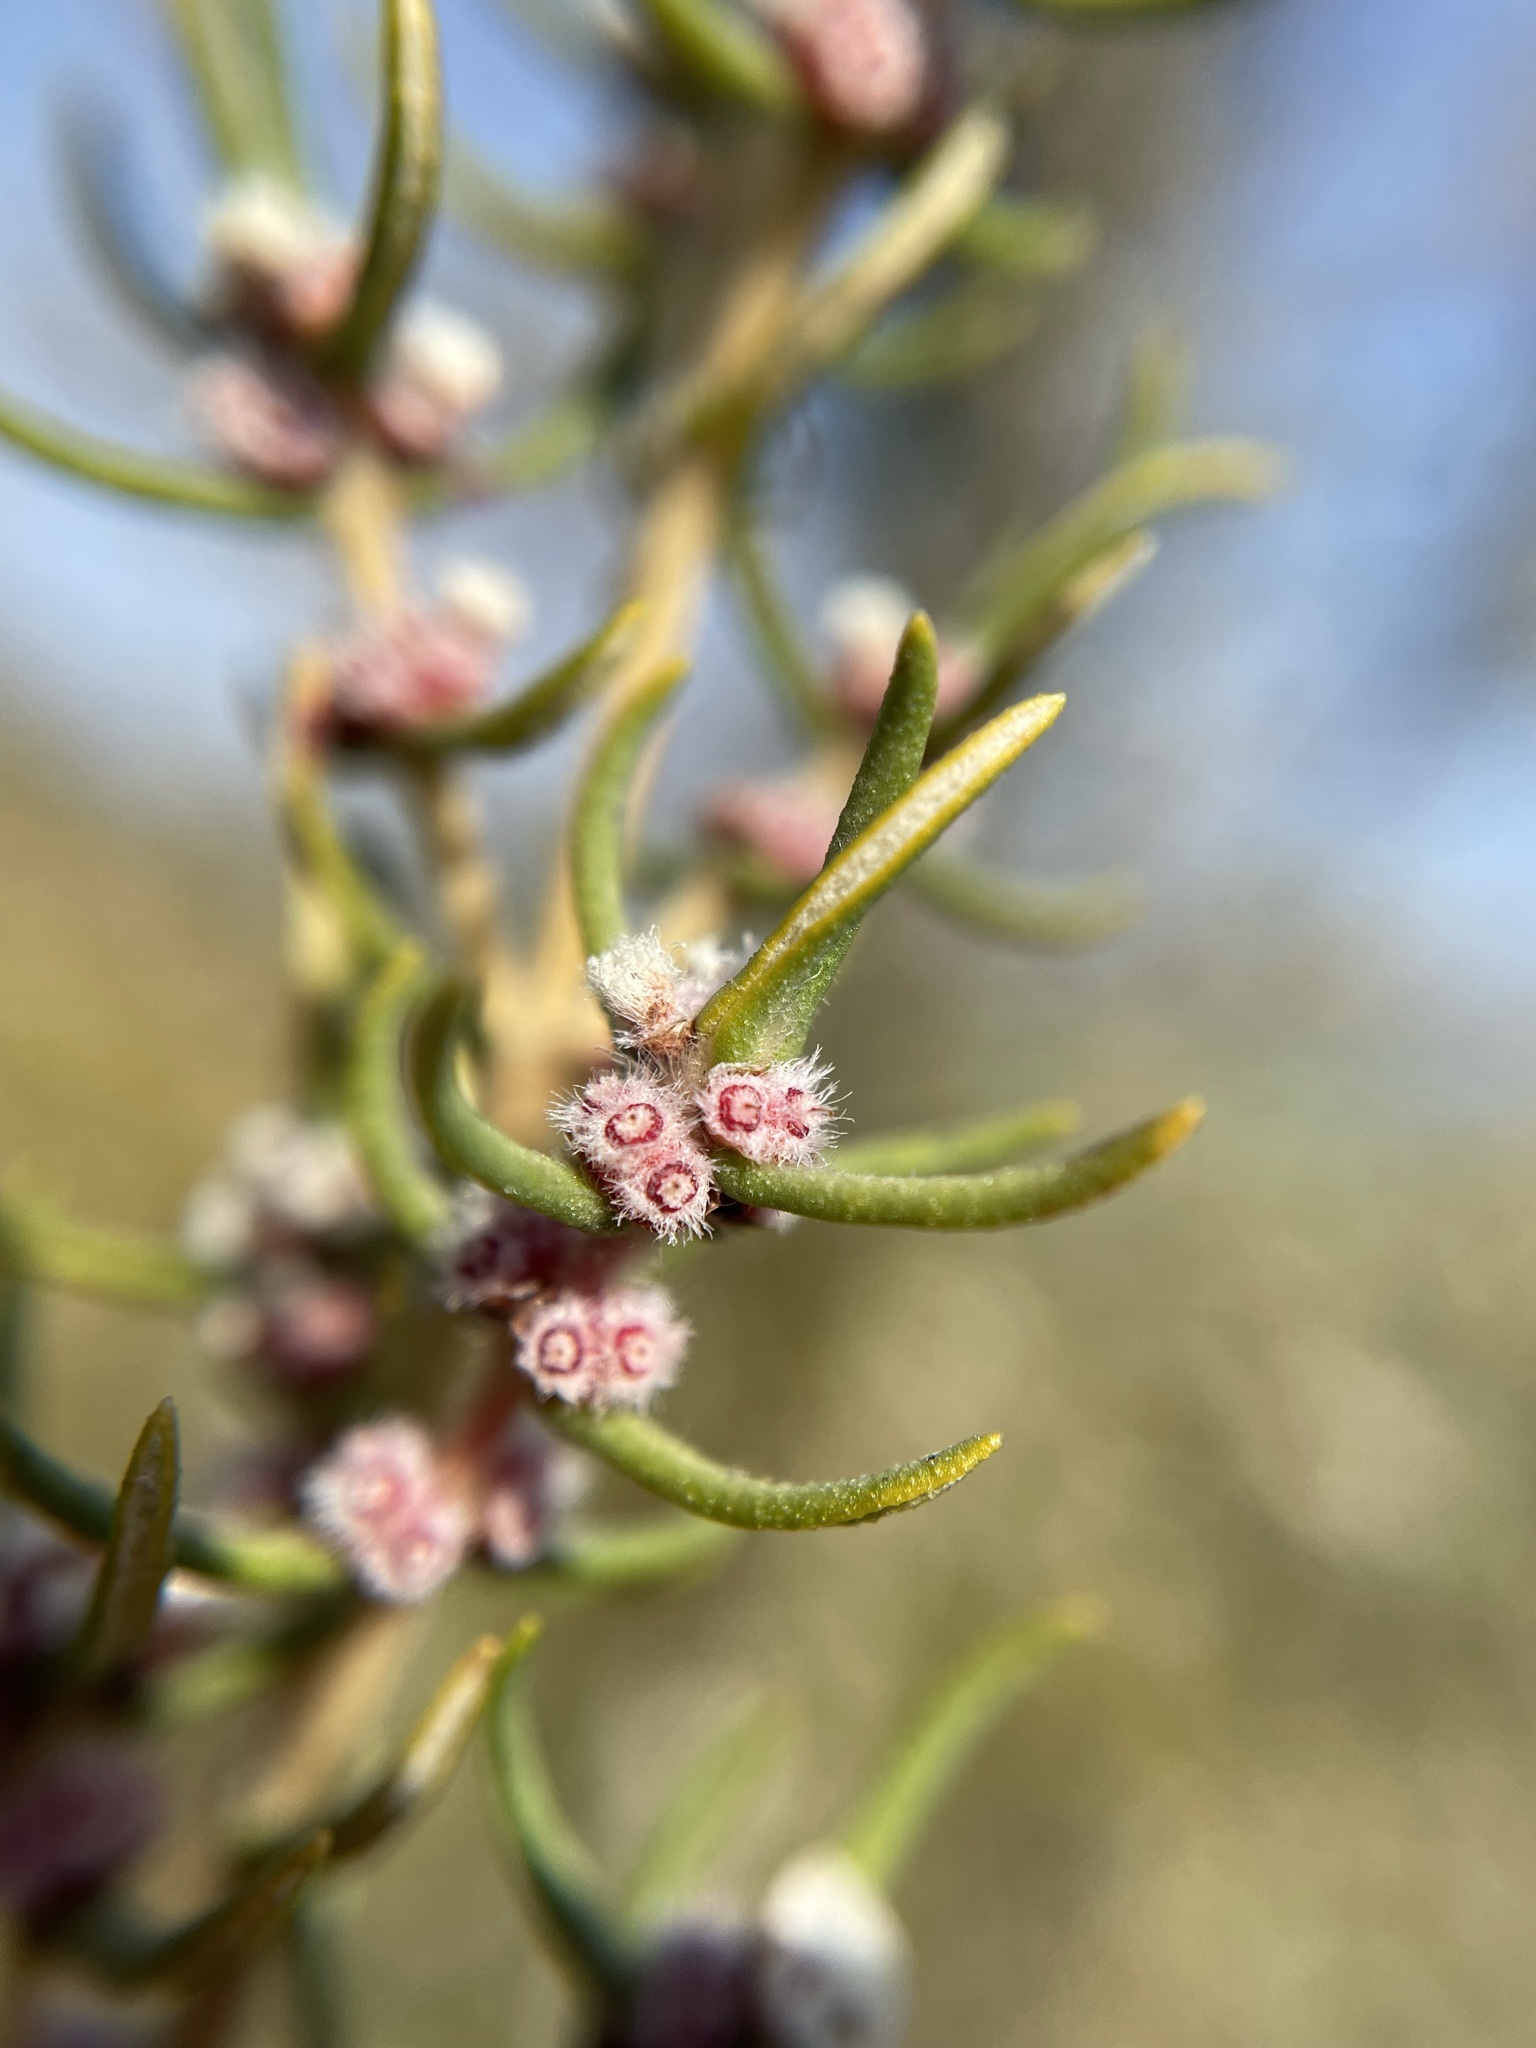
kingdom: Plantae
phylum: Tracheophyta
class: Magnoliopsida
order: Cornales
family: Grubbiaceae
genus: Grubbia
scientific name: Grubbia rosmarinifolia
